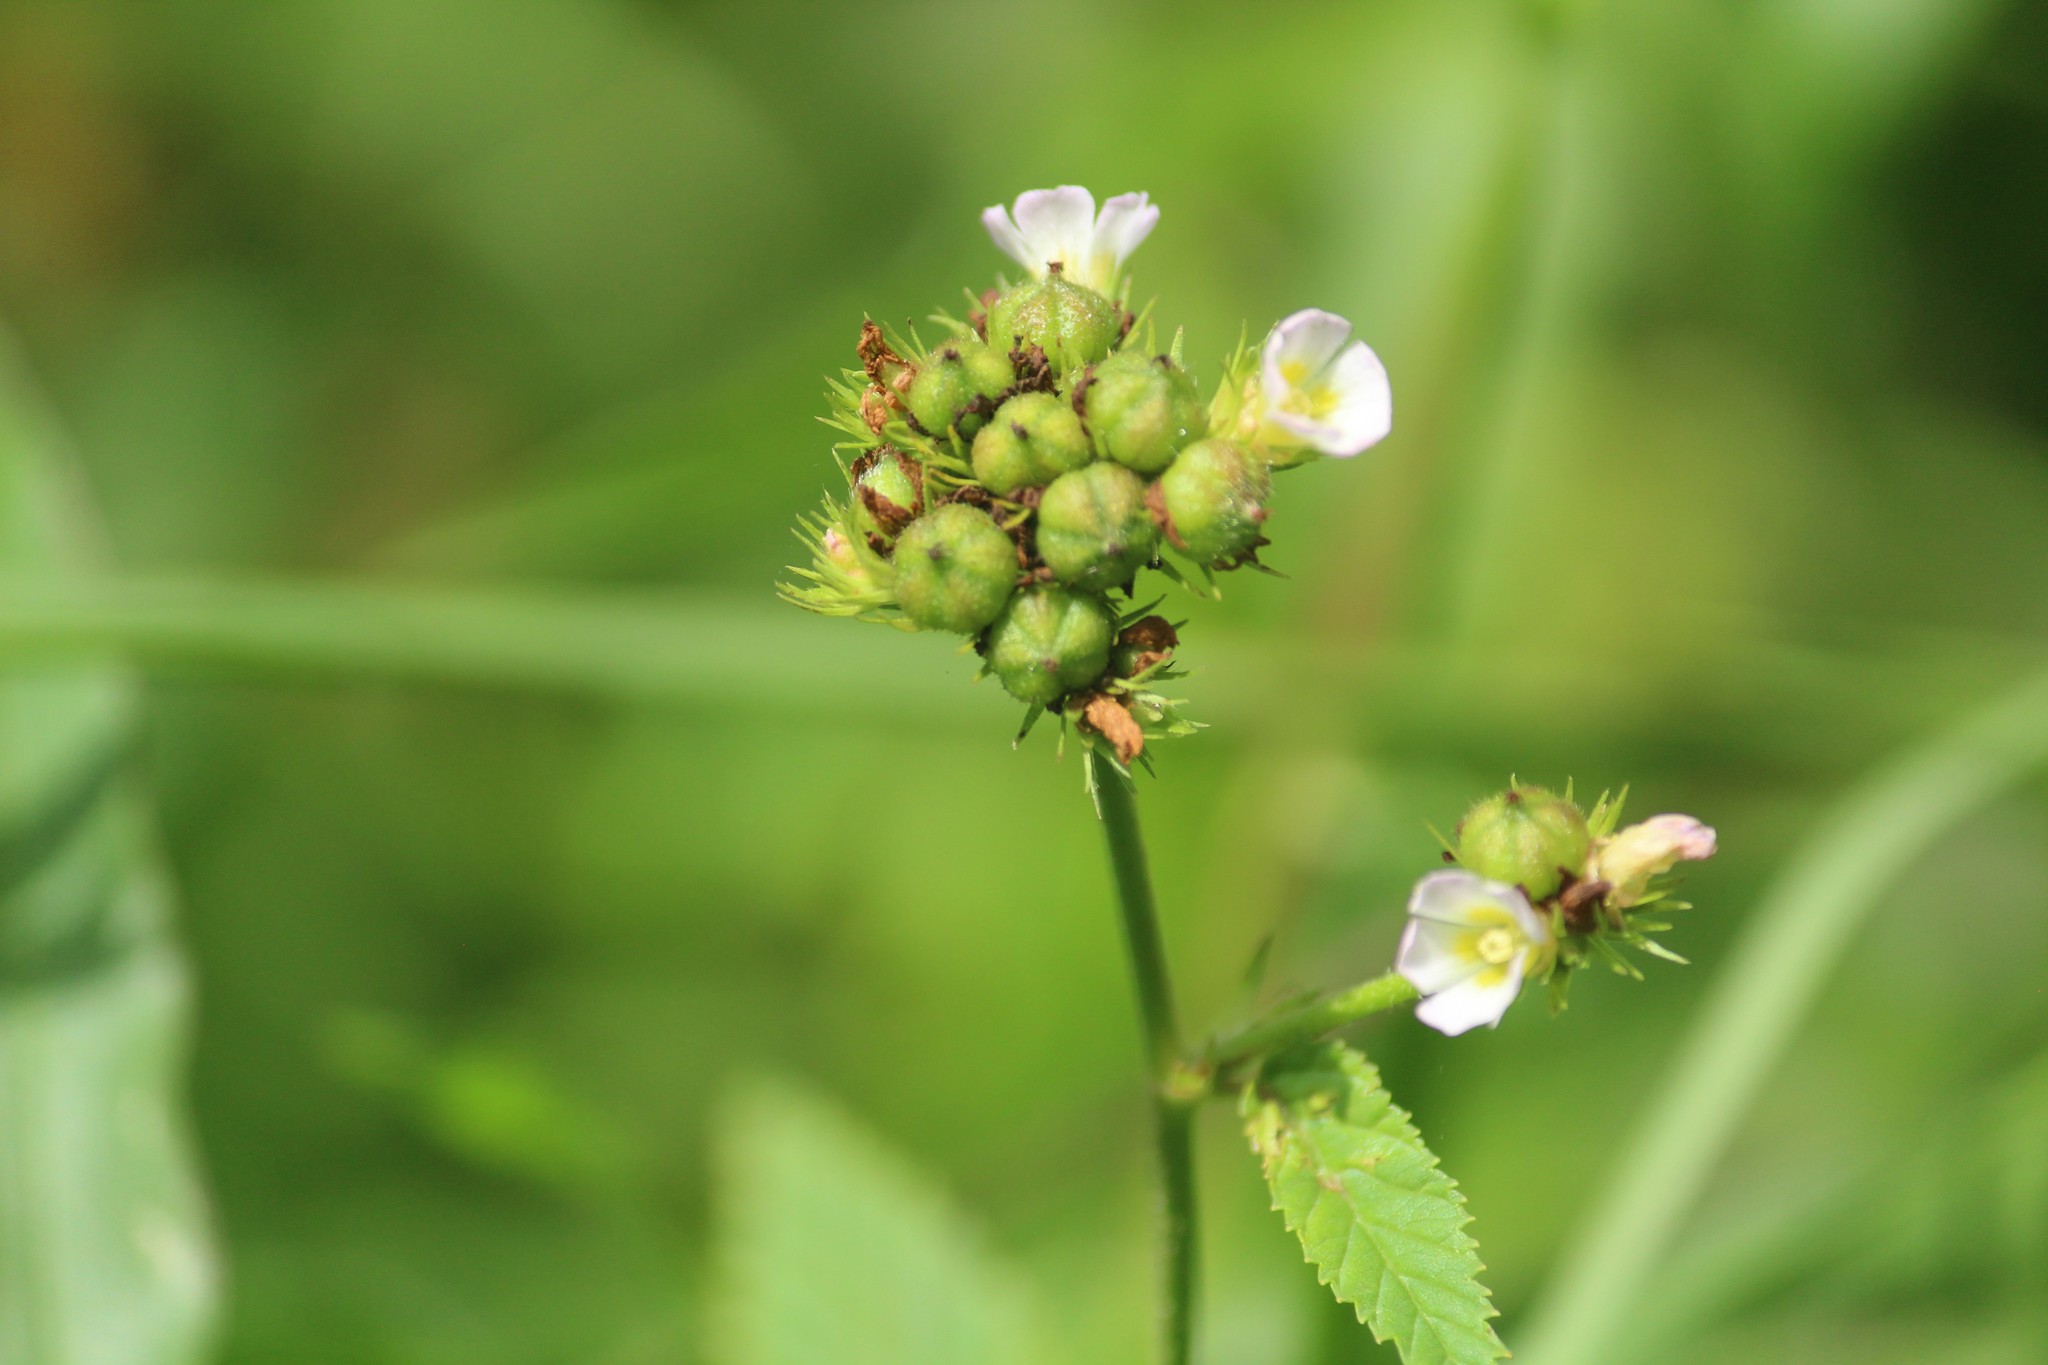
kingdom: Plantae
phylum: Tracheophyta
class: Magnoliopsida
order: Malvales
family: Malvaceae
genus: Melochia
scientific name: Melochia corchorifolia
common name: Chocolateweed
